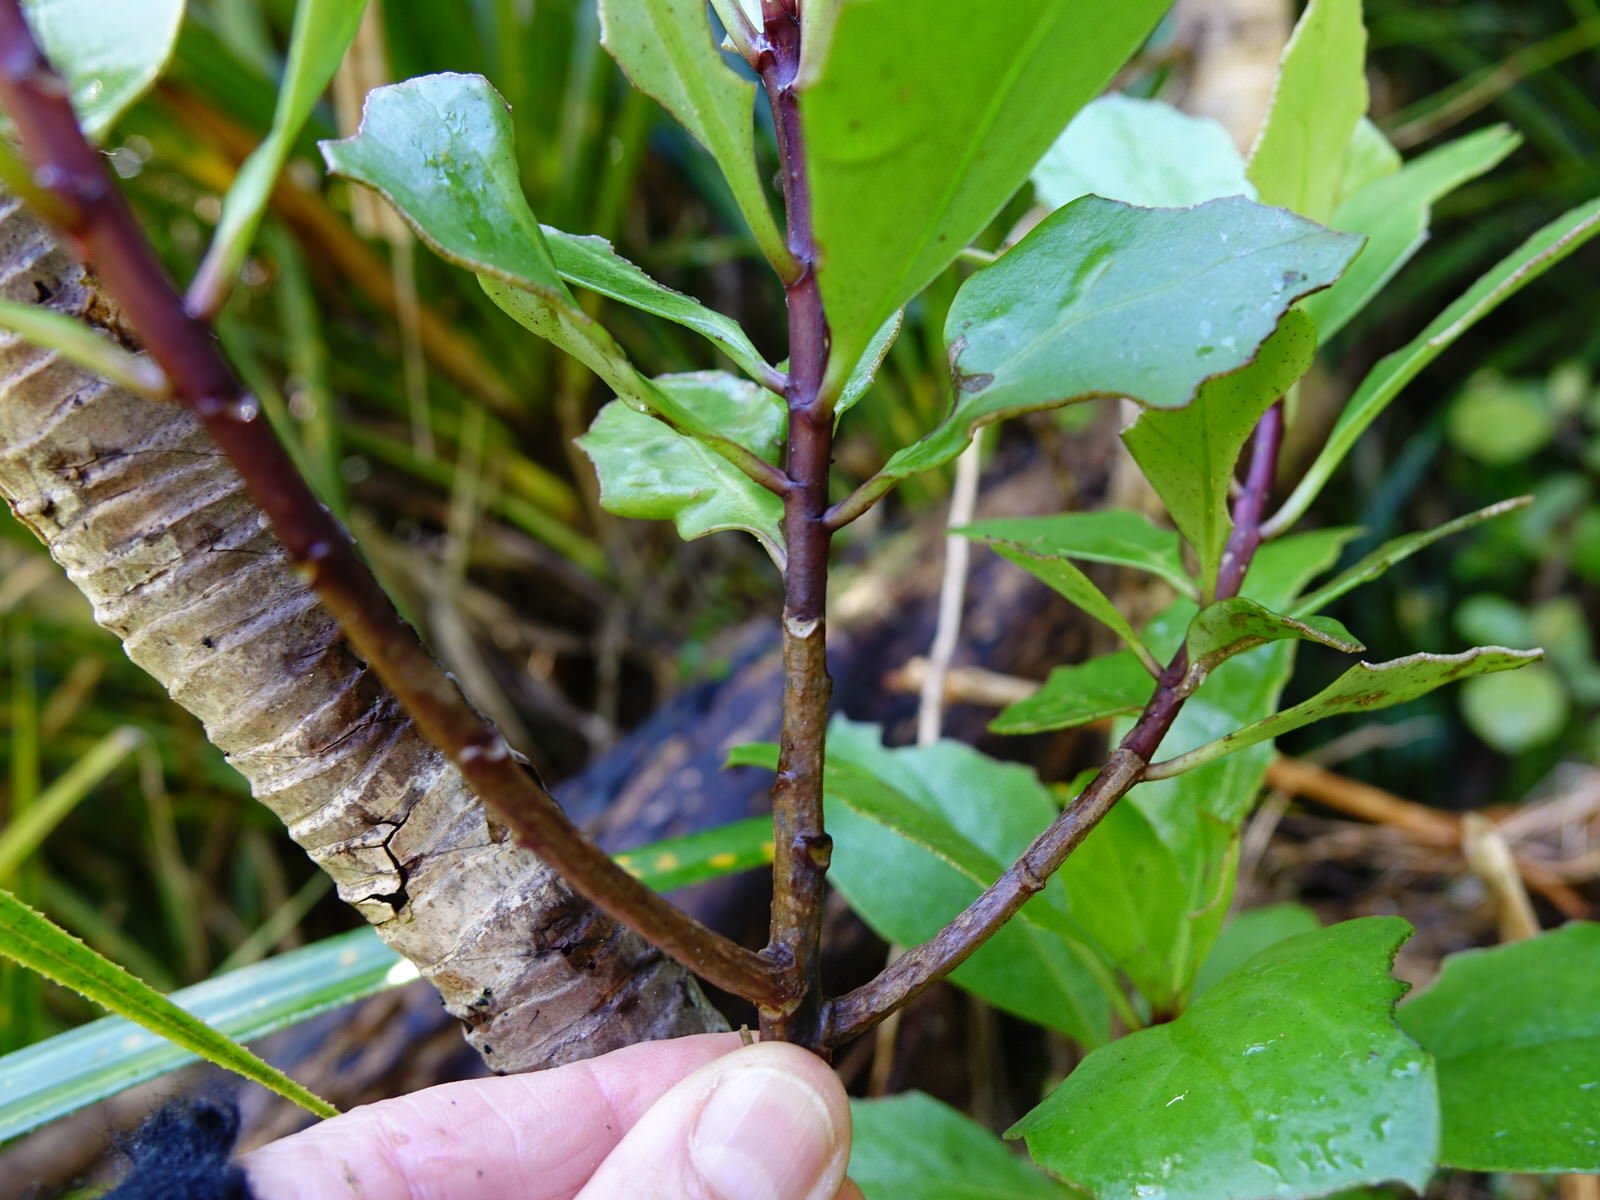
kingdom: Plantae
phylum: Tracheophyta
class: Magnoliopsida
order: Asterales
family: Asteraceae
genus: Brachyglottis
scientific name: Brachyglottis kirkii
